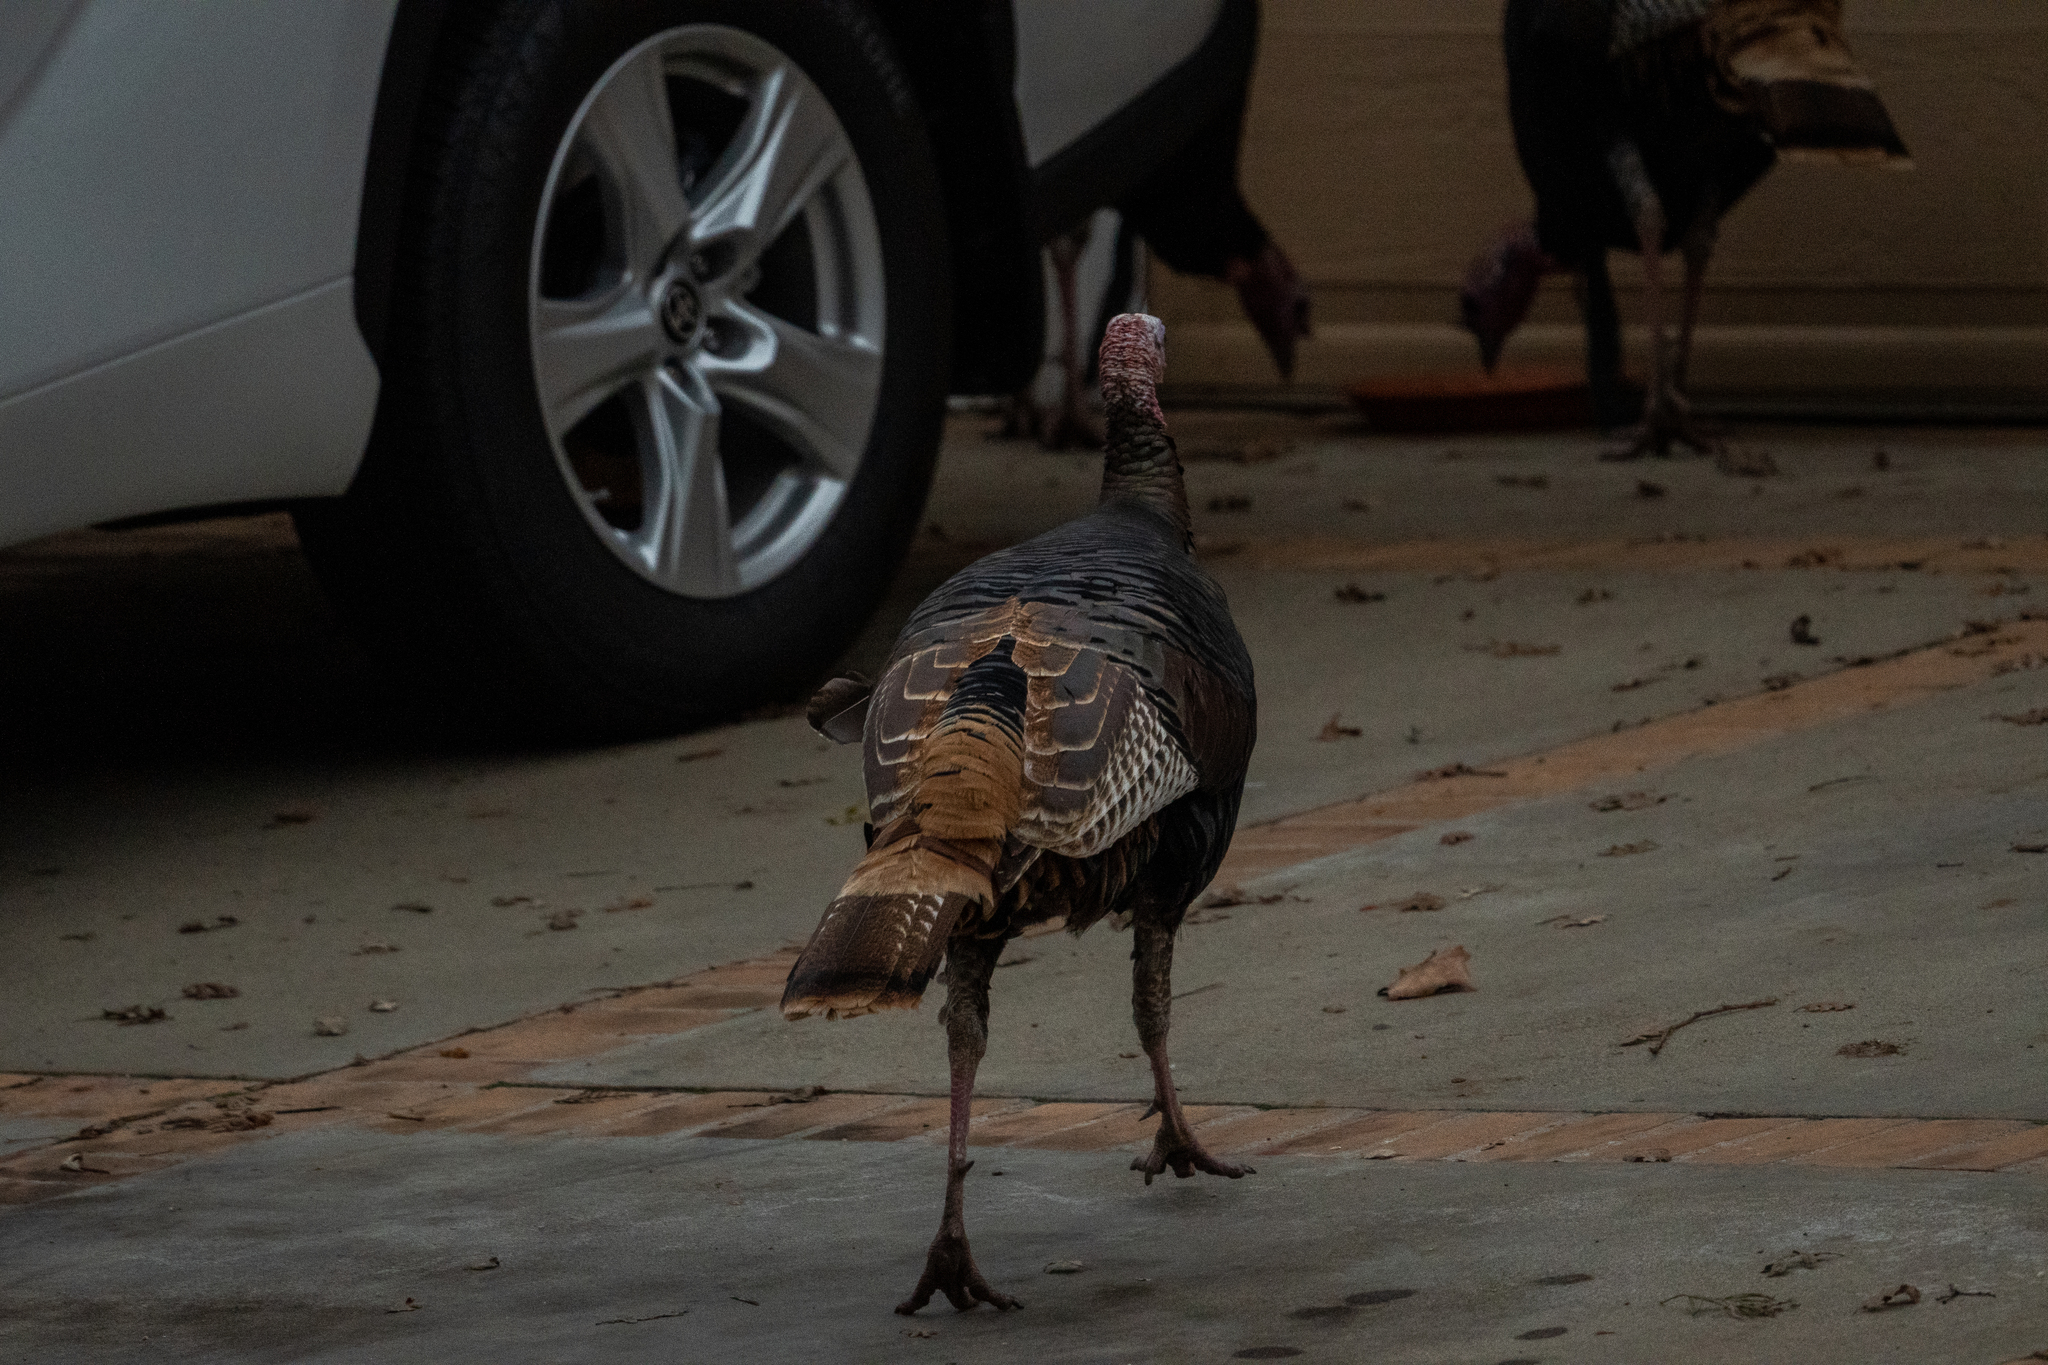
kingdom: Animalia
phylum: Chordata
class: Aves
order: Galliformes
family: Phasianidae
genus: Meleagris
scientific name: Meleagris gallopavo
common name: Wild turkey
